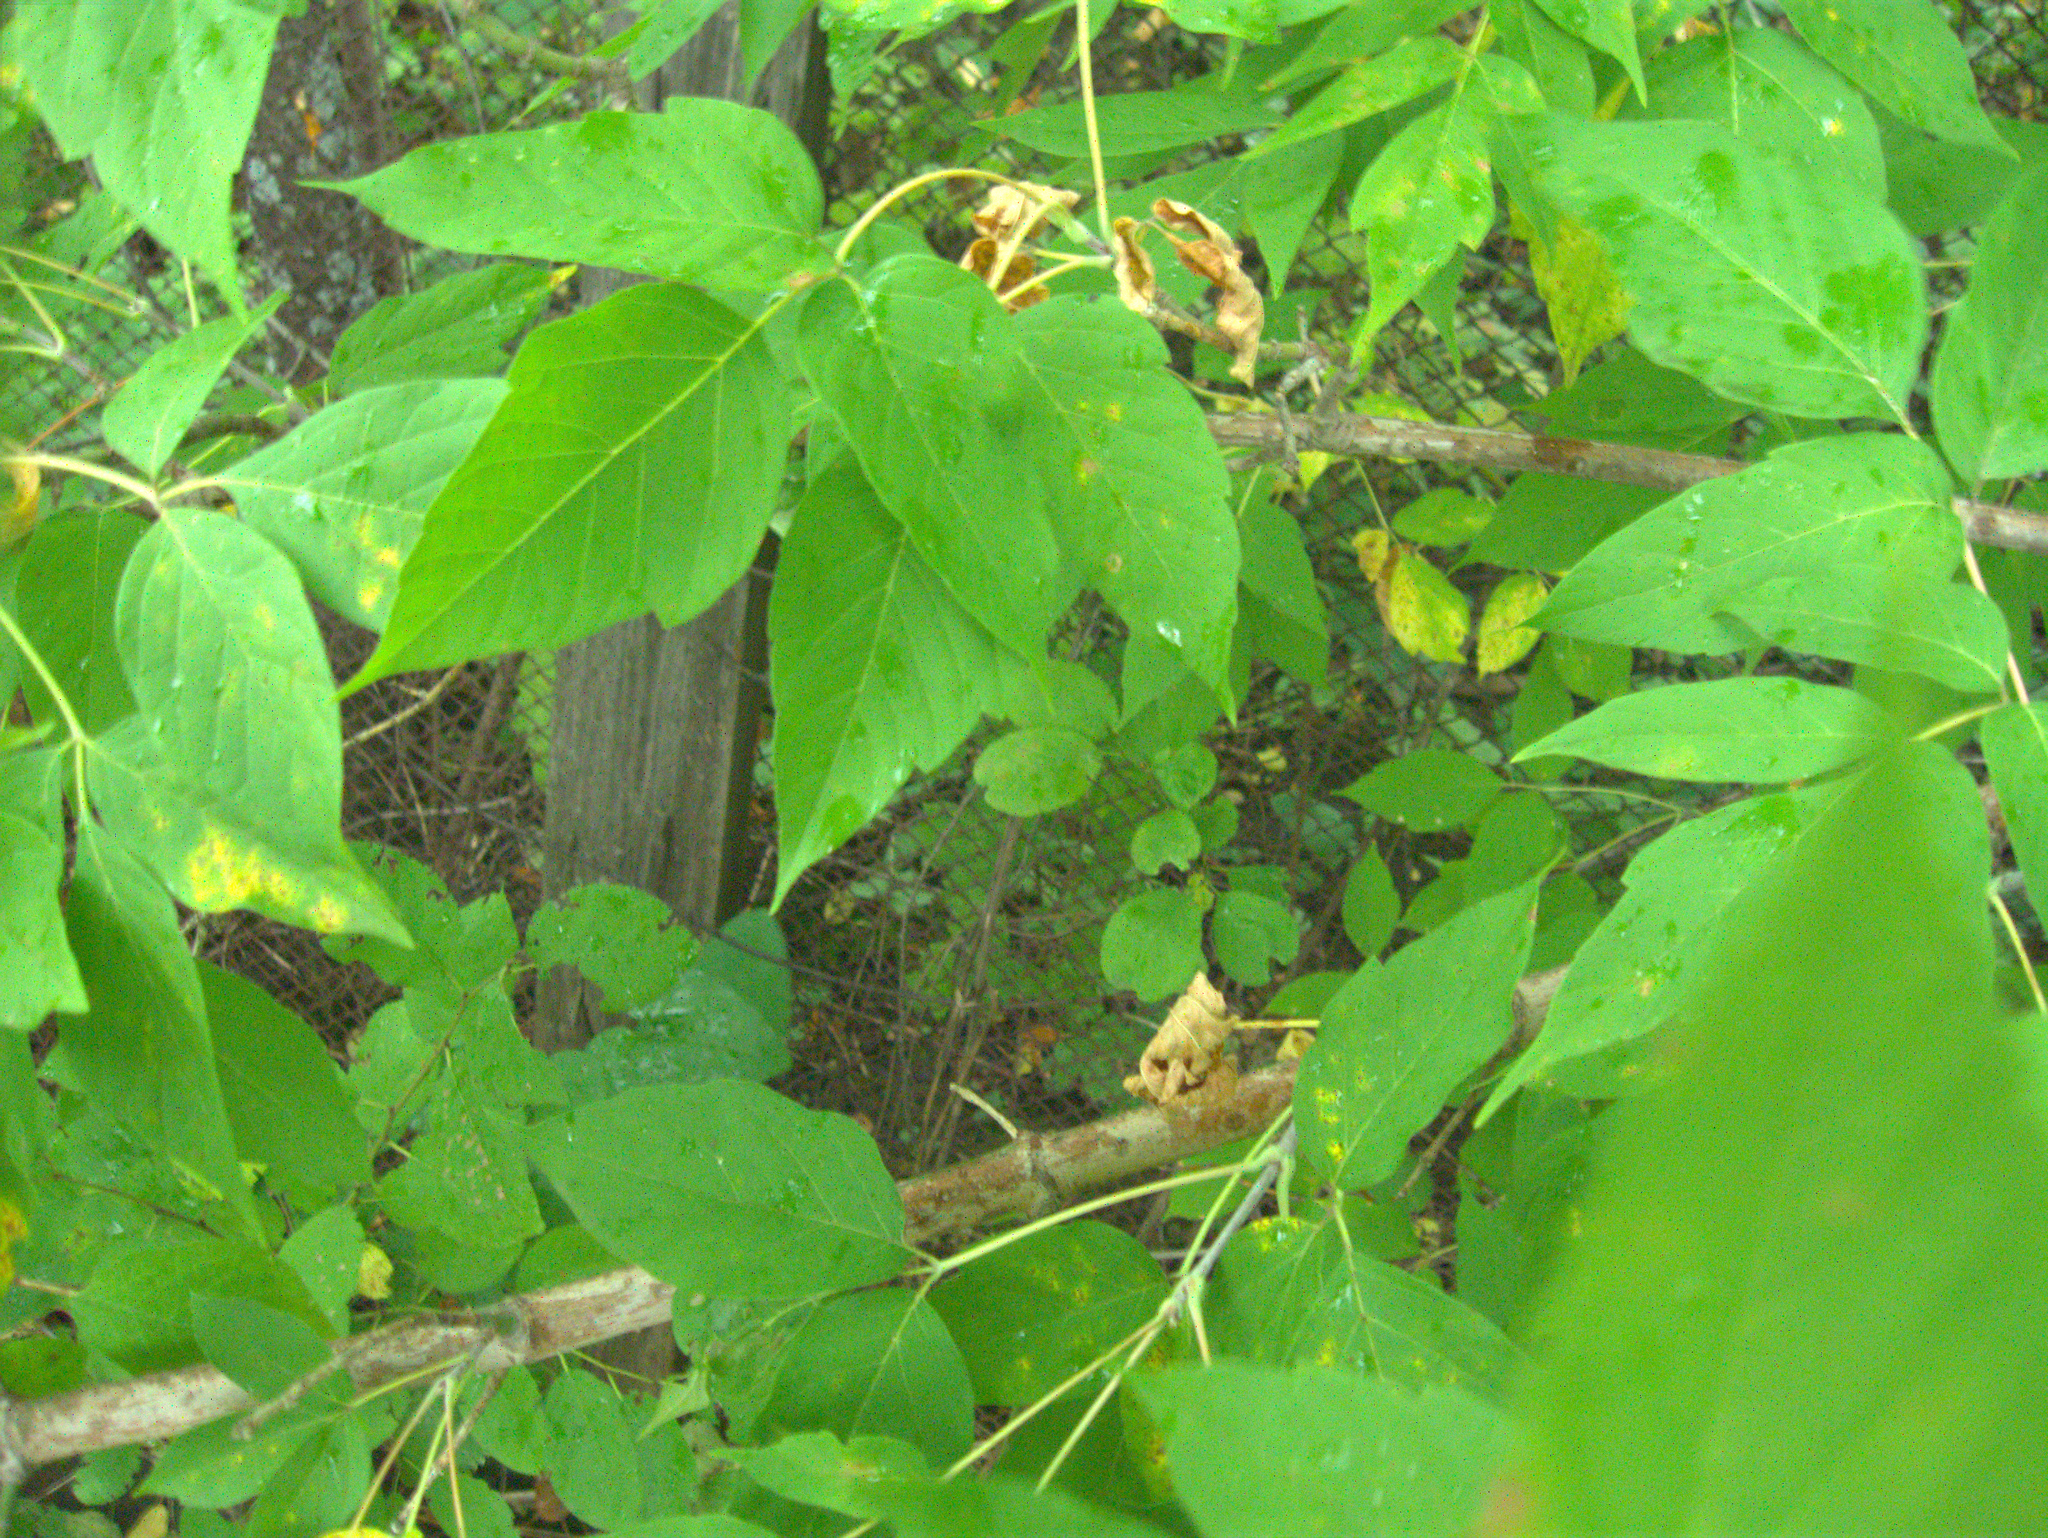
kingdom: Plantae
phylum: Tracheophyta
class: Magnoliopsida
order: Sapindales
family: Sapindaceae
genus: Acer
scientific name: Acer negundo
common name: Ashleaf maple
